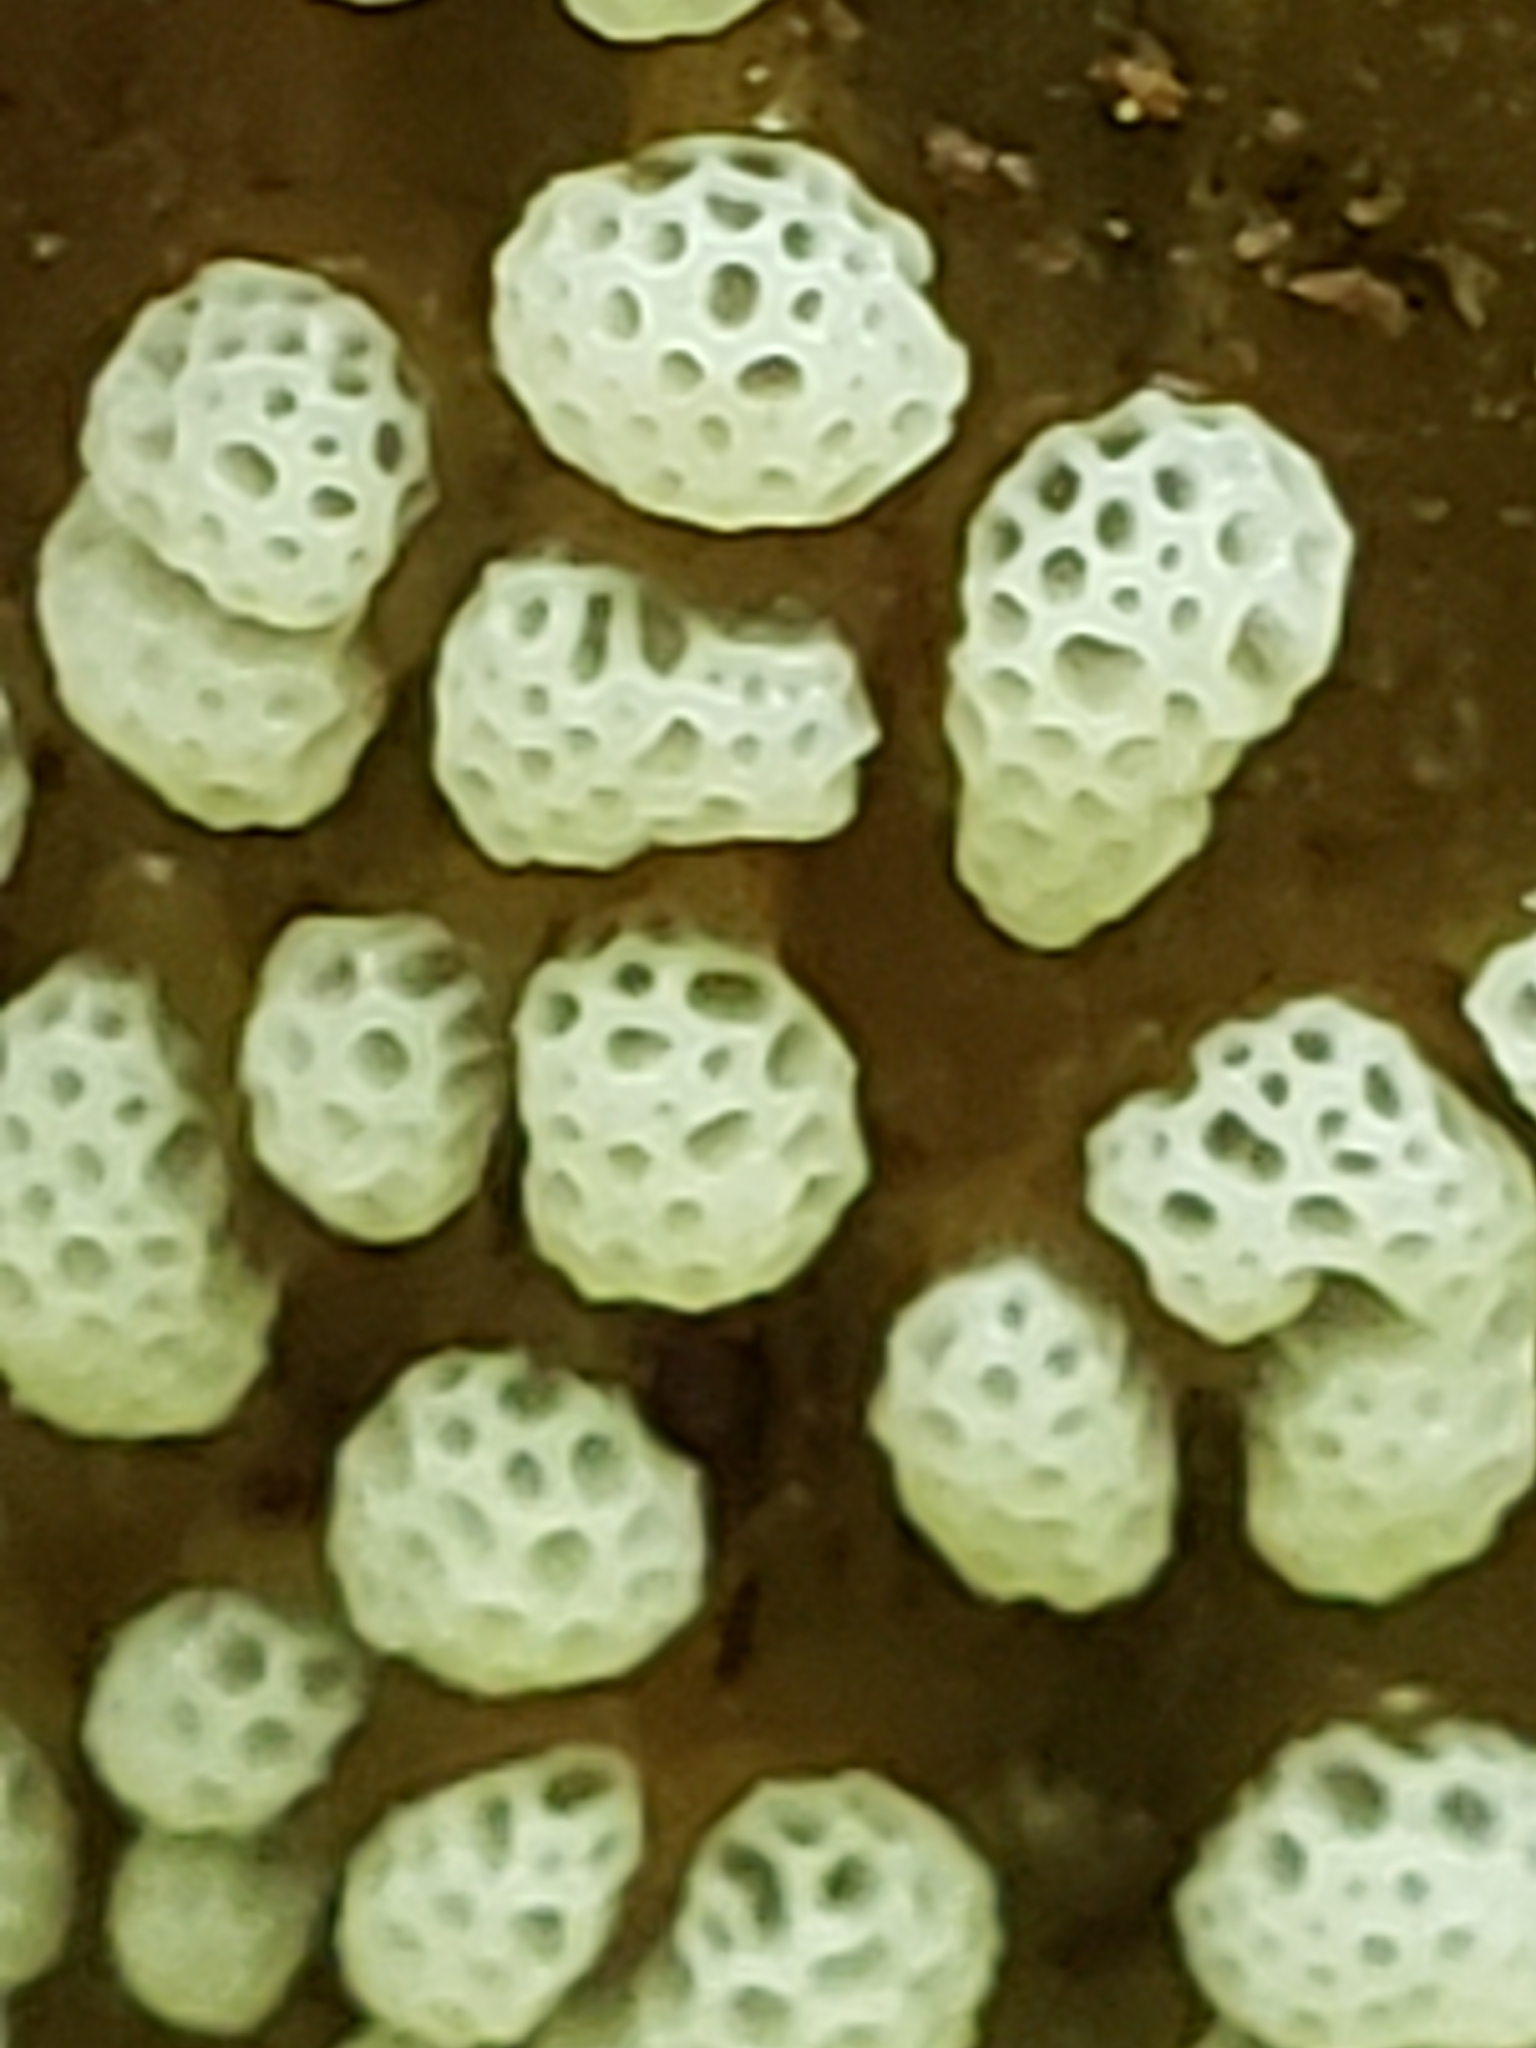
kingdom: Protozoa
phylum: Mycetozoa
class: Protosteliomycetes
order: Ceratiomyxales
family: Ceratiomyxaceae
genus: Ceratiomyxa
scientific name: Ceratiomyxa fruticulosa
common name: Honeycomb coral slime mold
